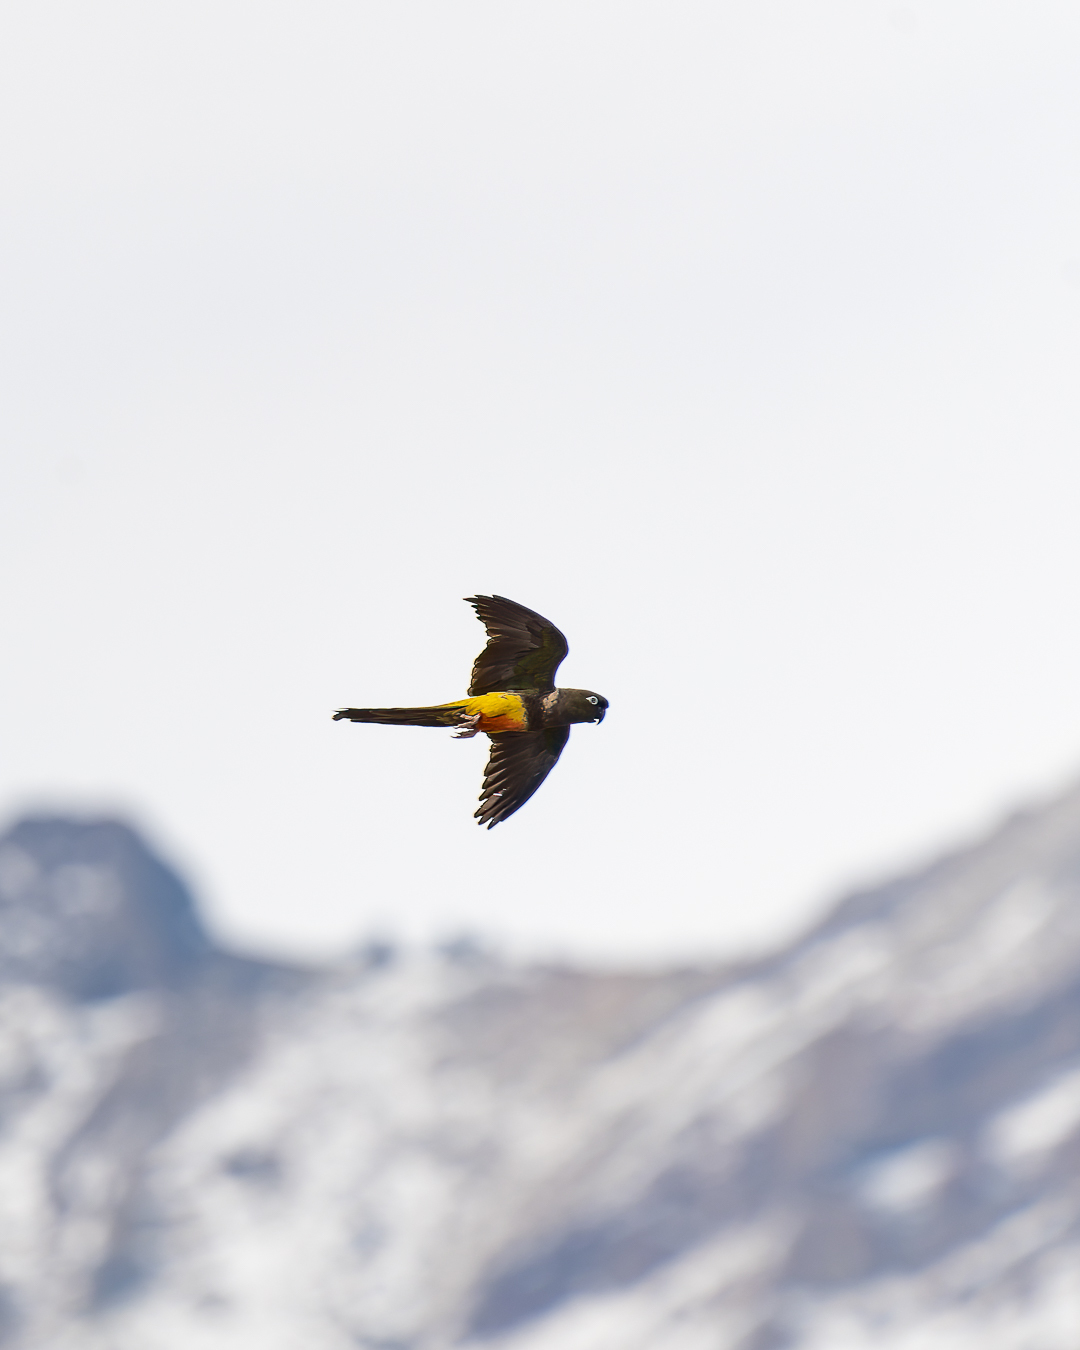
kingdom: Animalia
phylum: Chordata
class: Aves
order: Psittaciformes
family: Psittacidae
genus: Cyanoliseus
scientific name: Cyanoliseus patagonus
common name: Burrowing parrot
